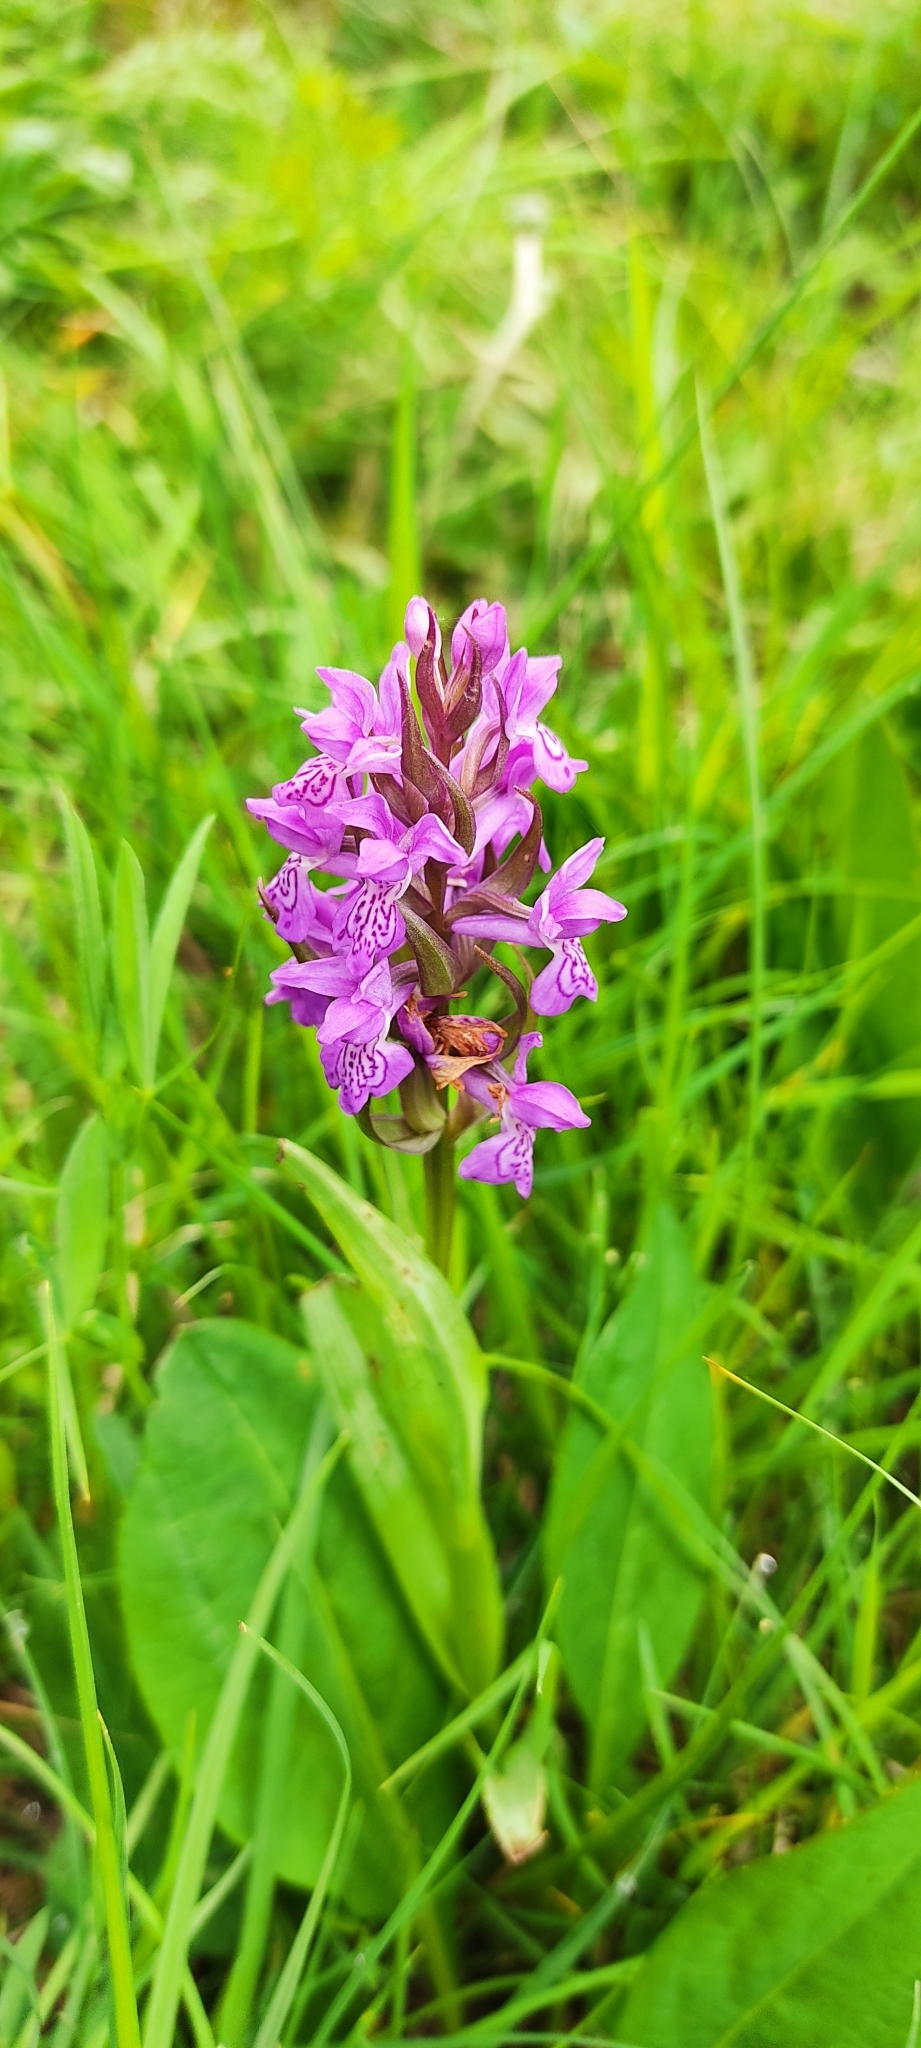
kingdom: Plantae
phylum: Tracheophyta
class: Liliopsida
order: Asparagales
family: Orchidaceae
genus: Dactylorhiza
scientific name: Dactylorhiza elata
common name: Stately dactylorhiza
